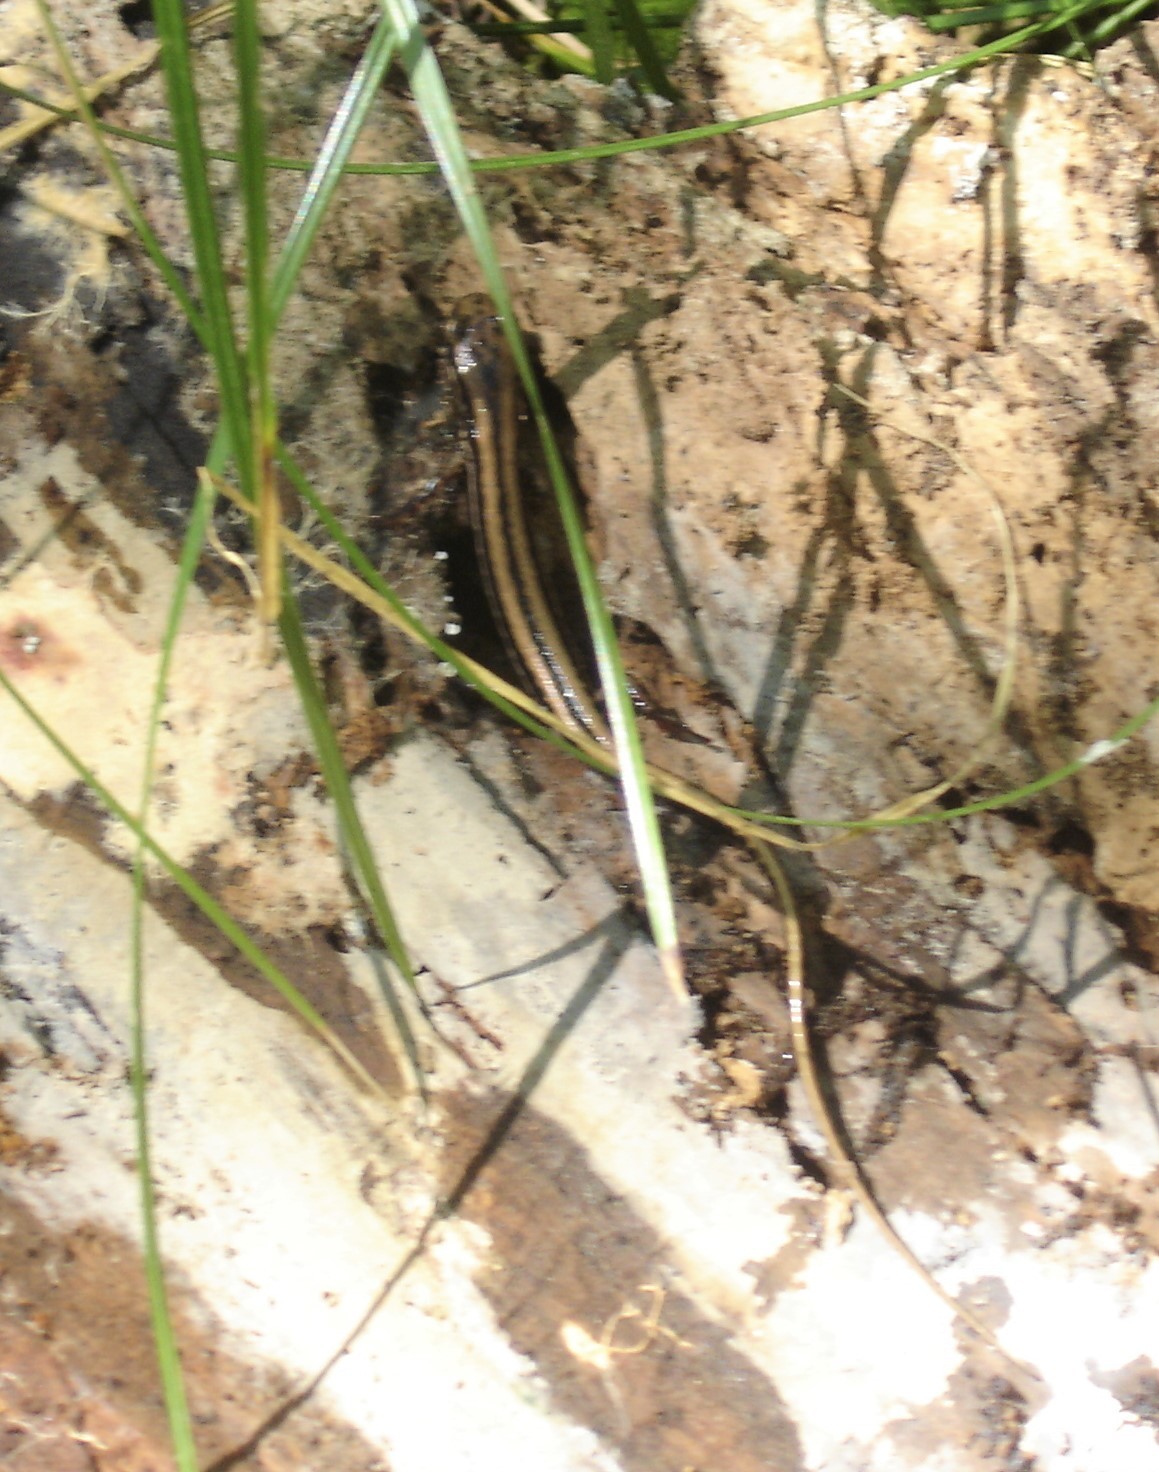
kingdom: Animalia
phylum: Chordata
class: Amphibia
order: Caudata
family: Plethodontidae
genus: Eurycea
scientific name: Eurycea guttolineata
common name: Three-lined salamander
